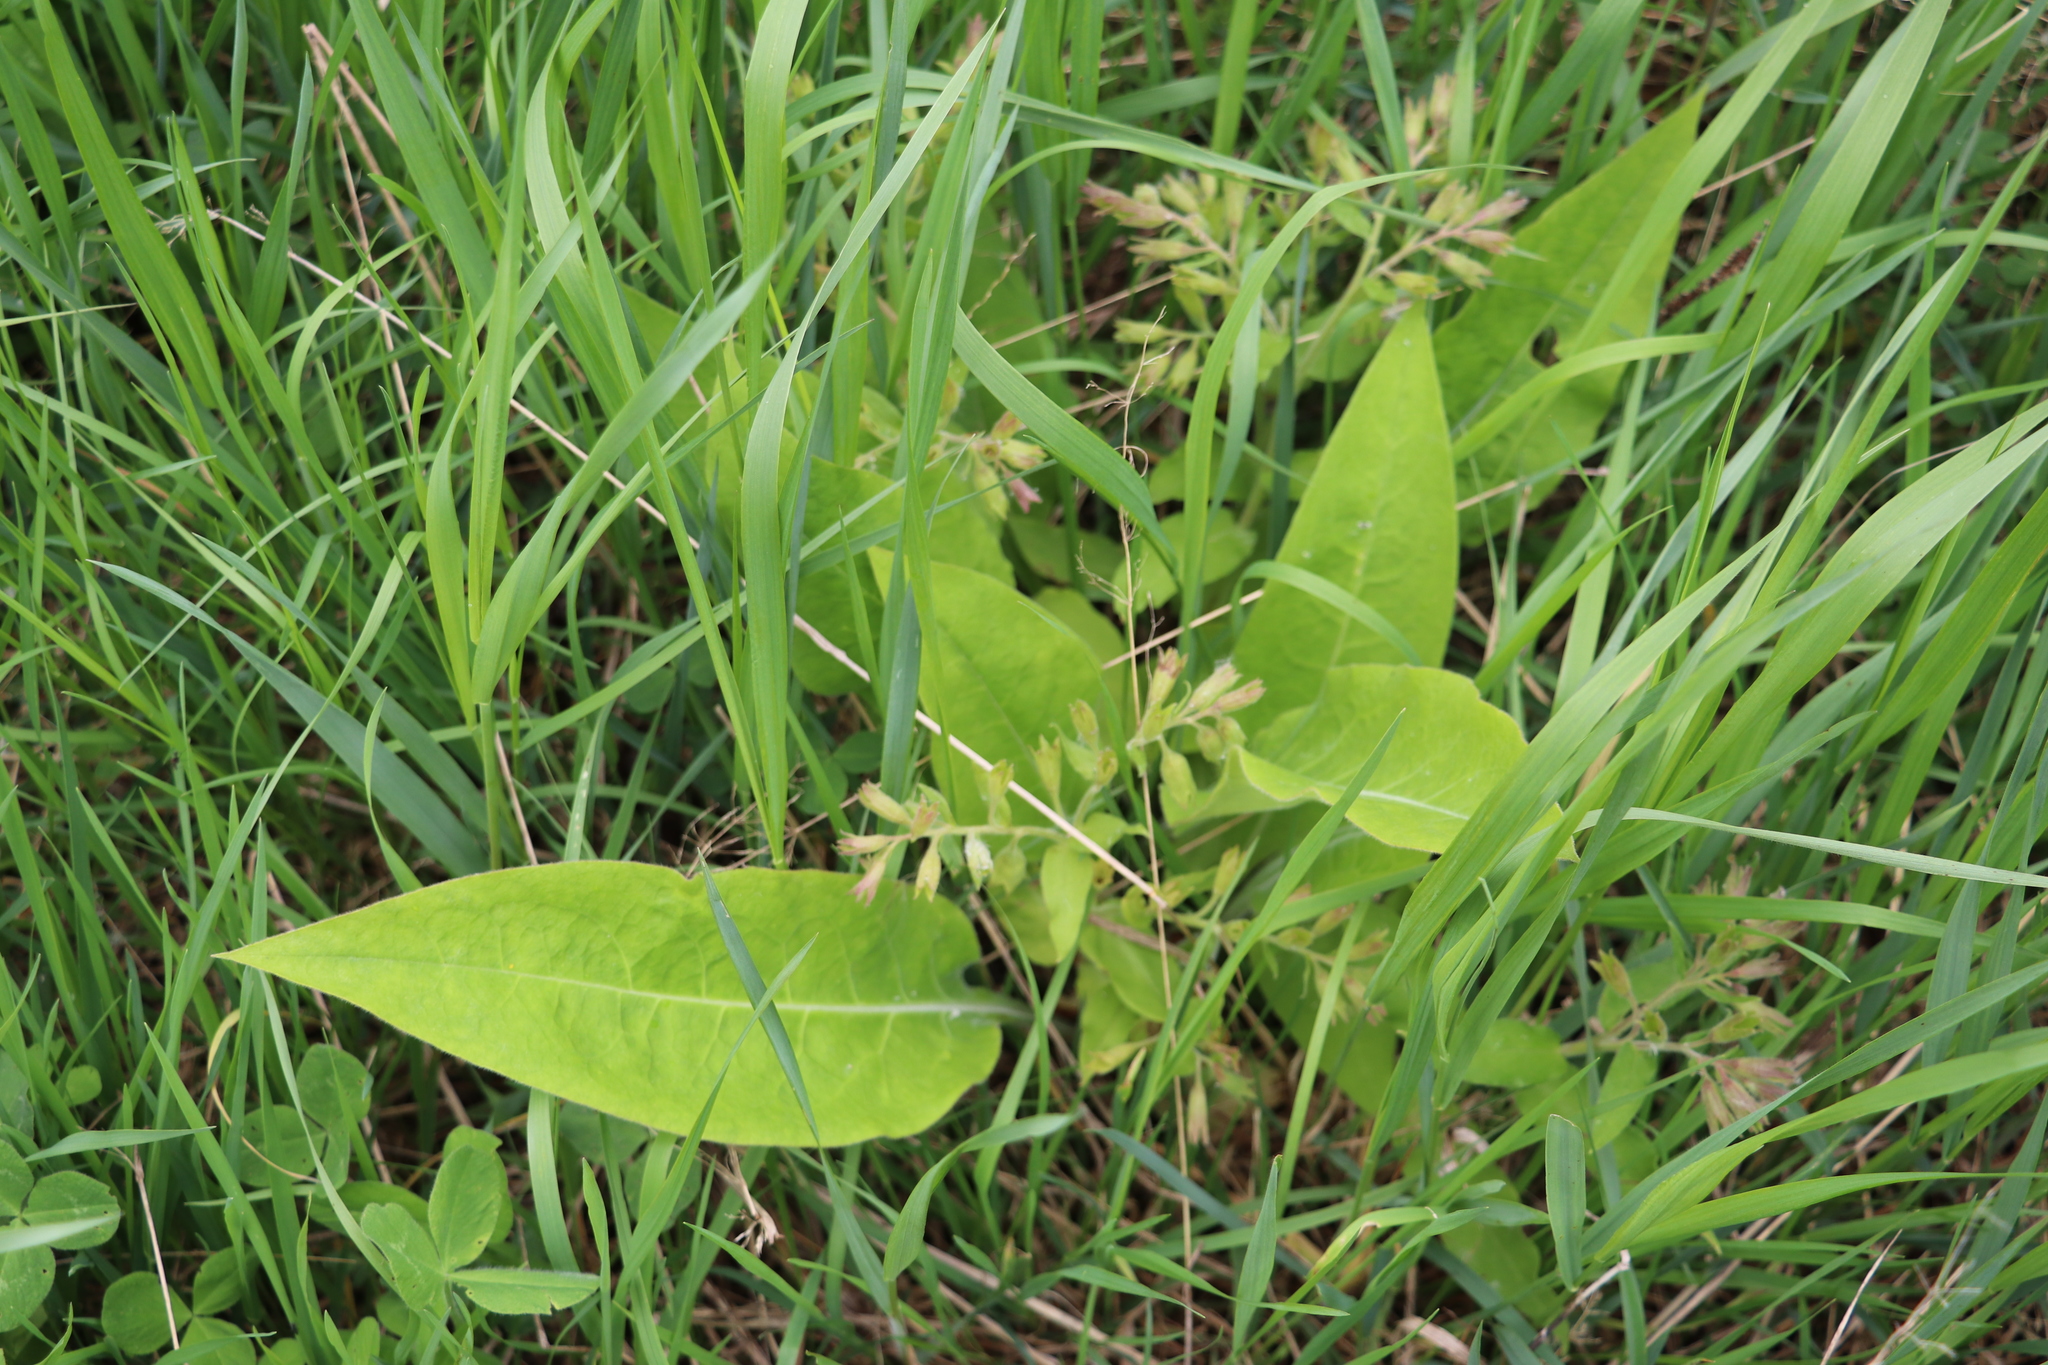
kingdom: Plantae
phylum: Tracheophyta
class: Magnoliopsida
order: Boraginales
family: Boraginaceae
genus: Pulmonaria
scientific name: Pulmonaria mollis
